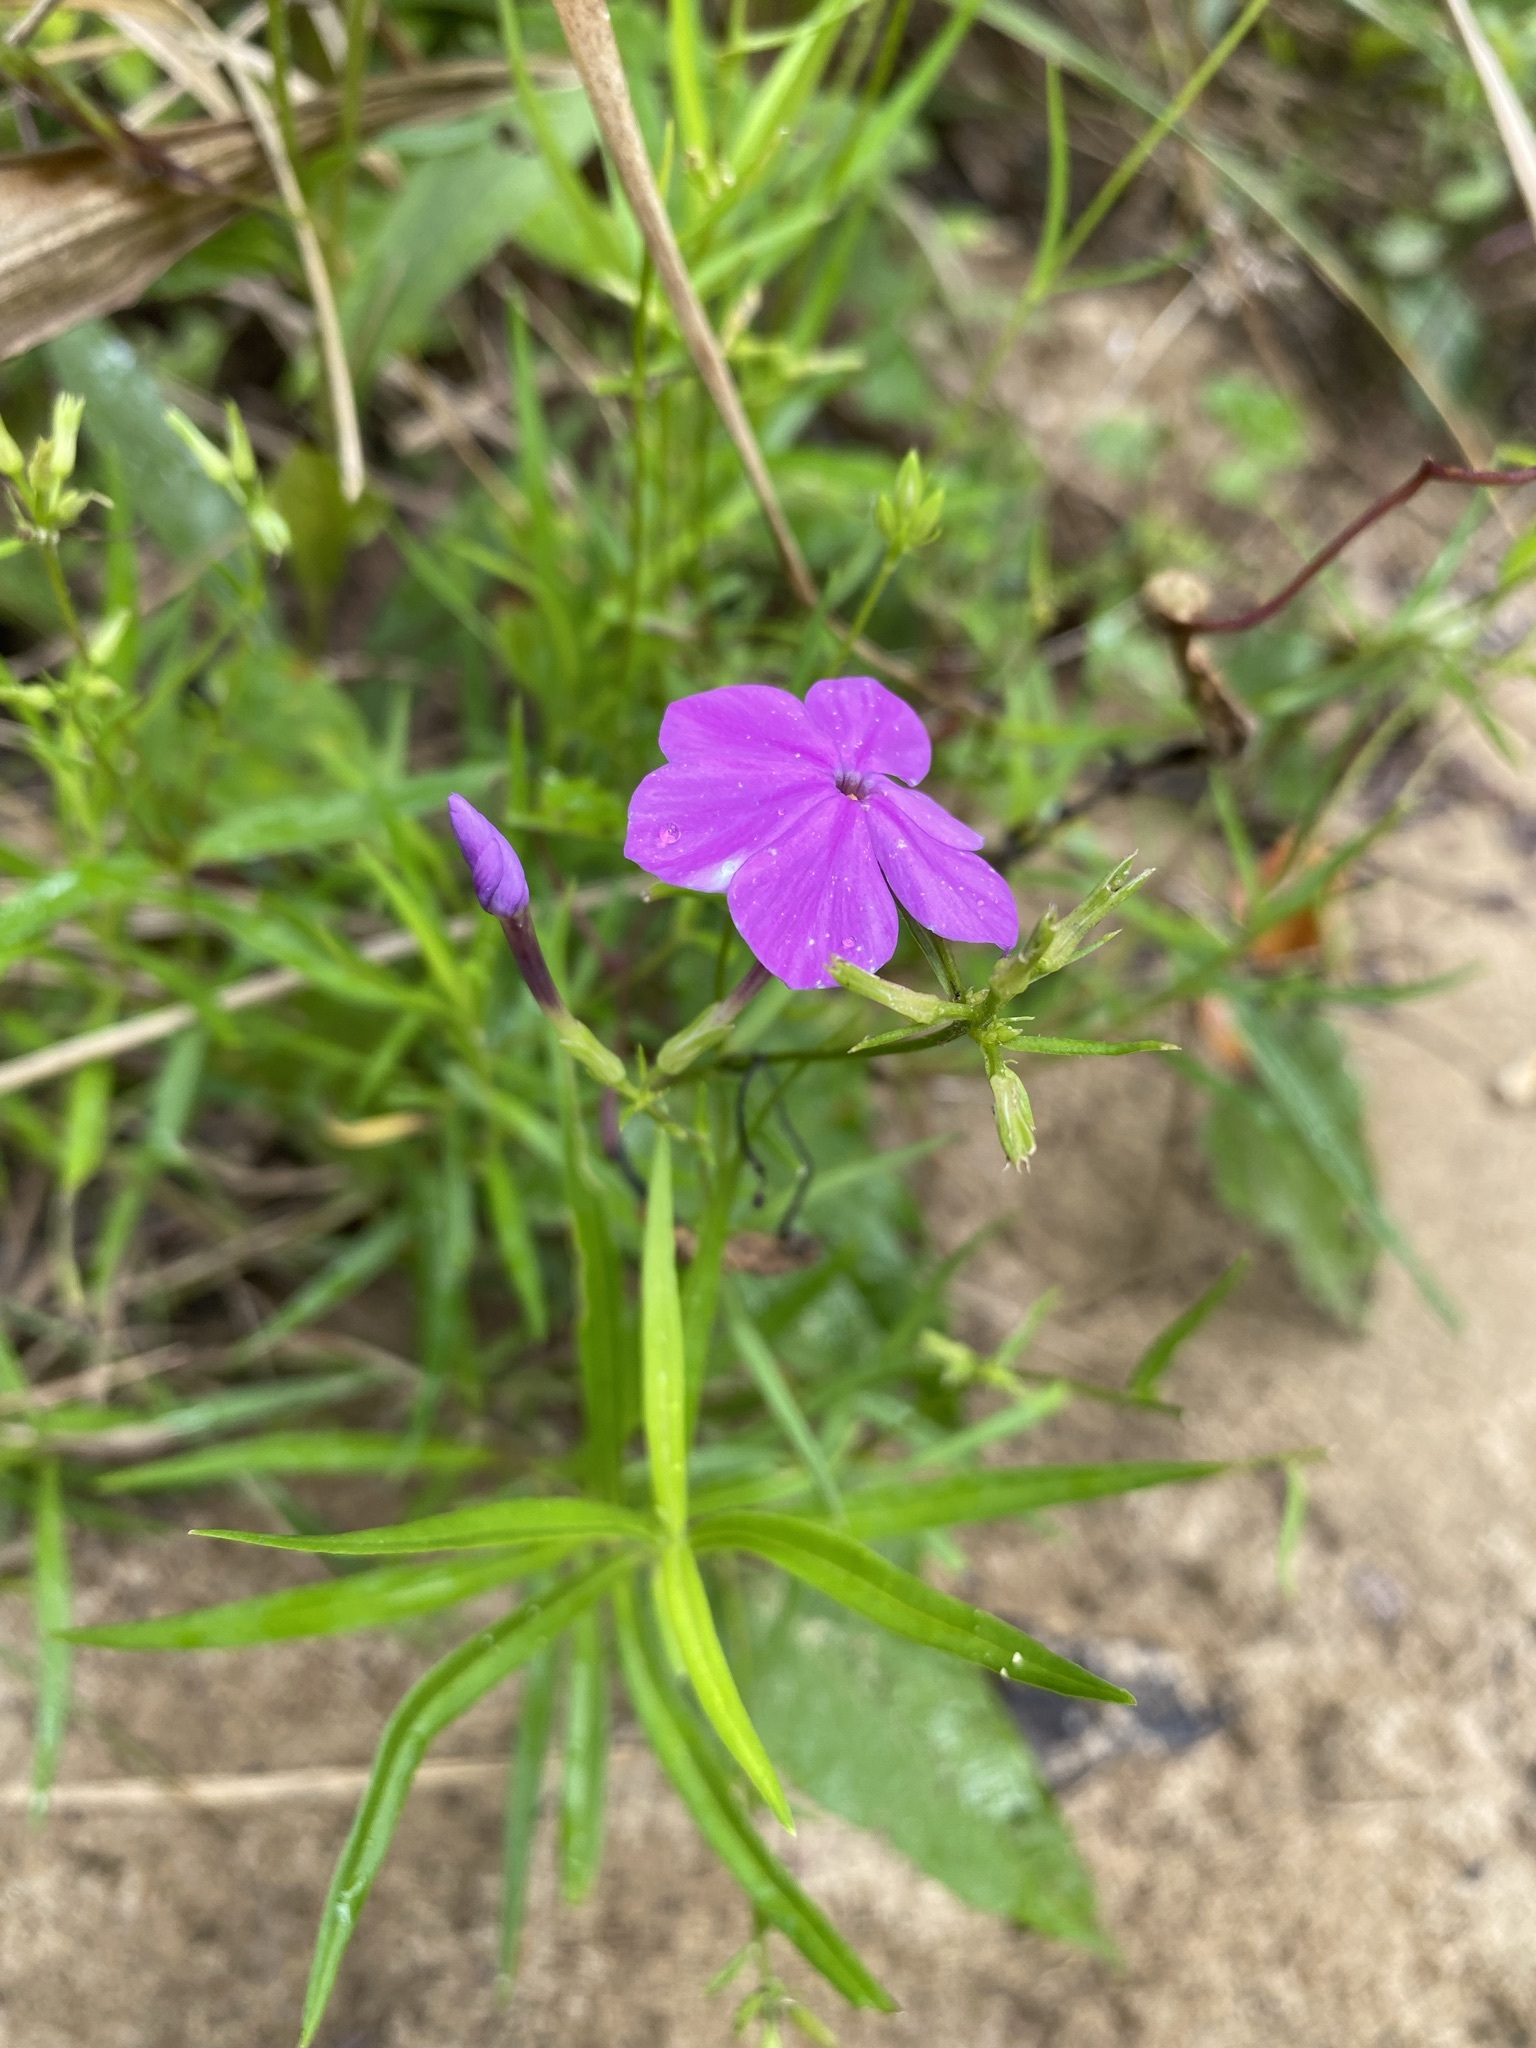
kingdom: Plantae
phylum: Tracheophyta
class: Magnoliopsida
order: Ericales
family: Polemoniaceae
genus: Phlox
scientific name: Phlox carolina
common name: Thick-leaf phlox
